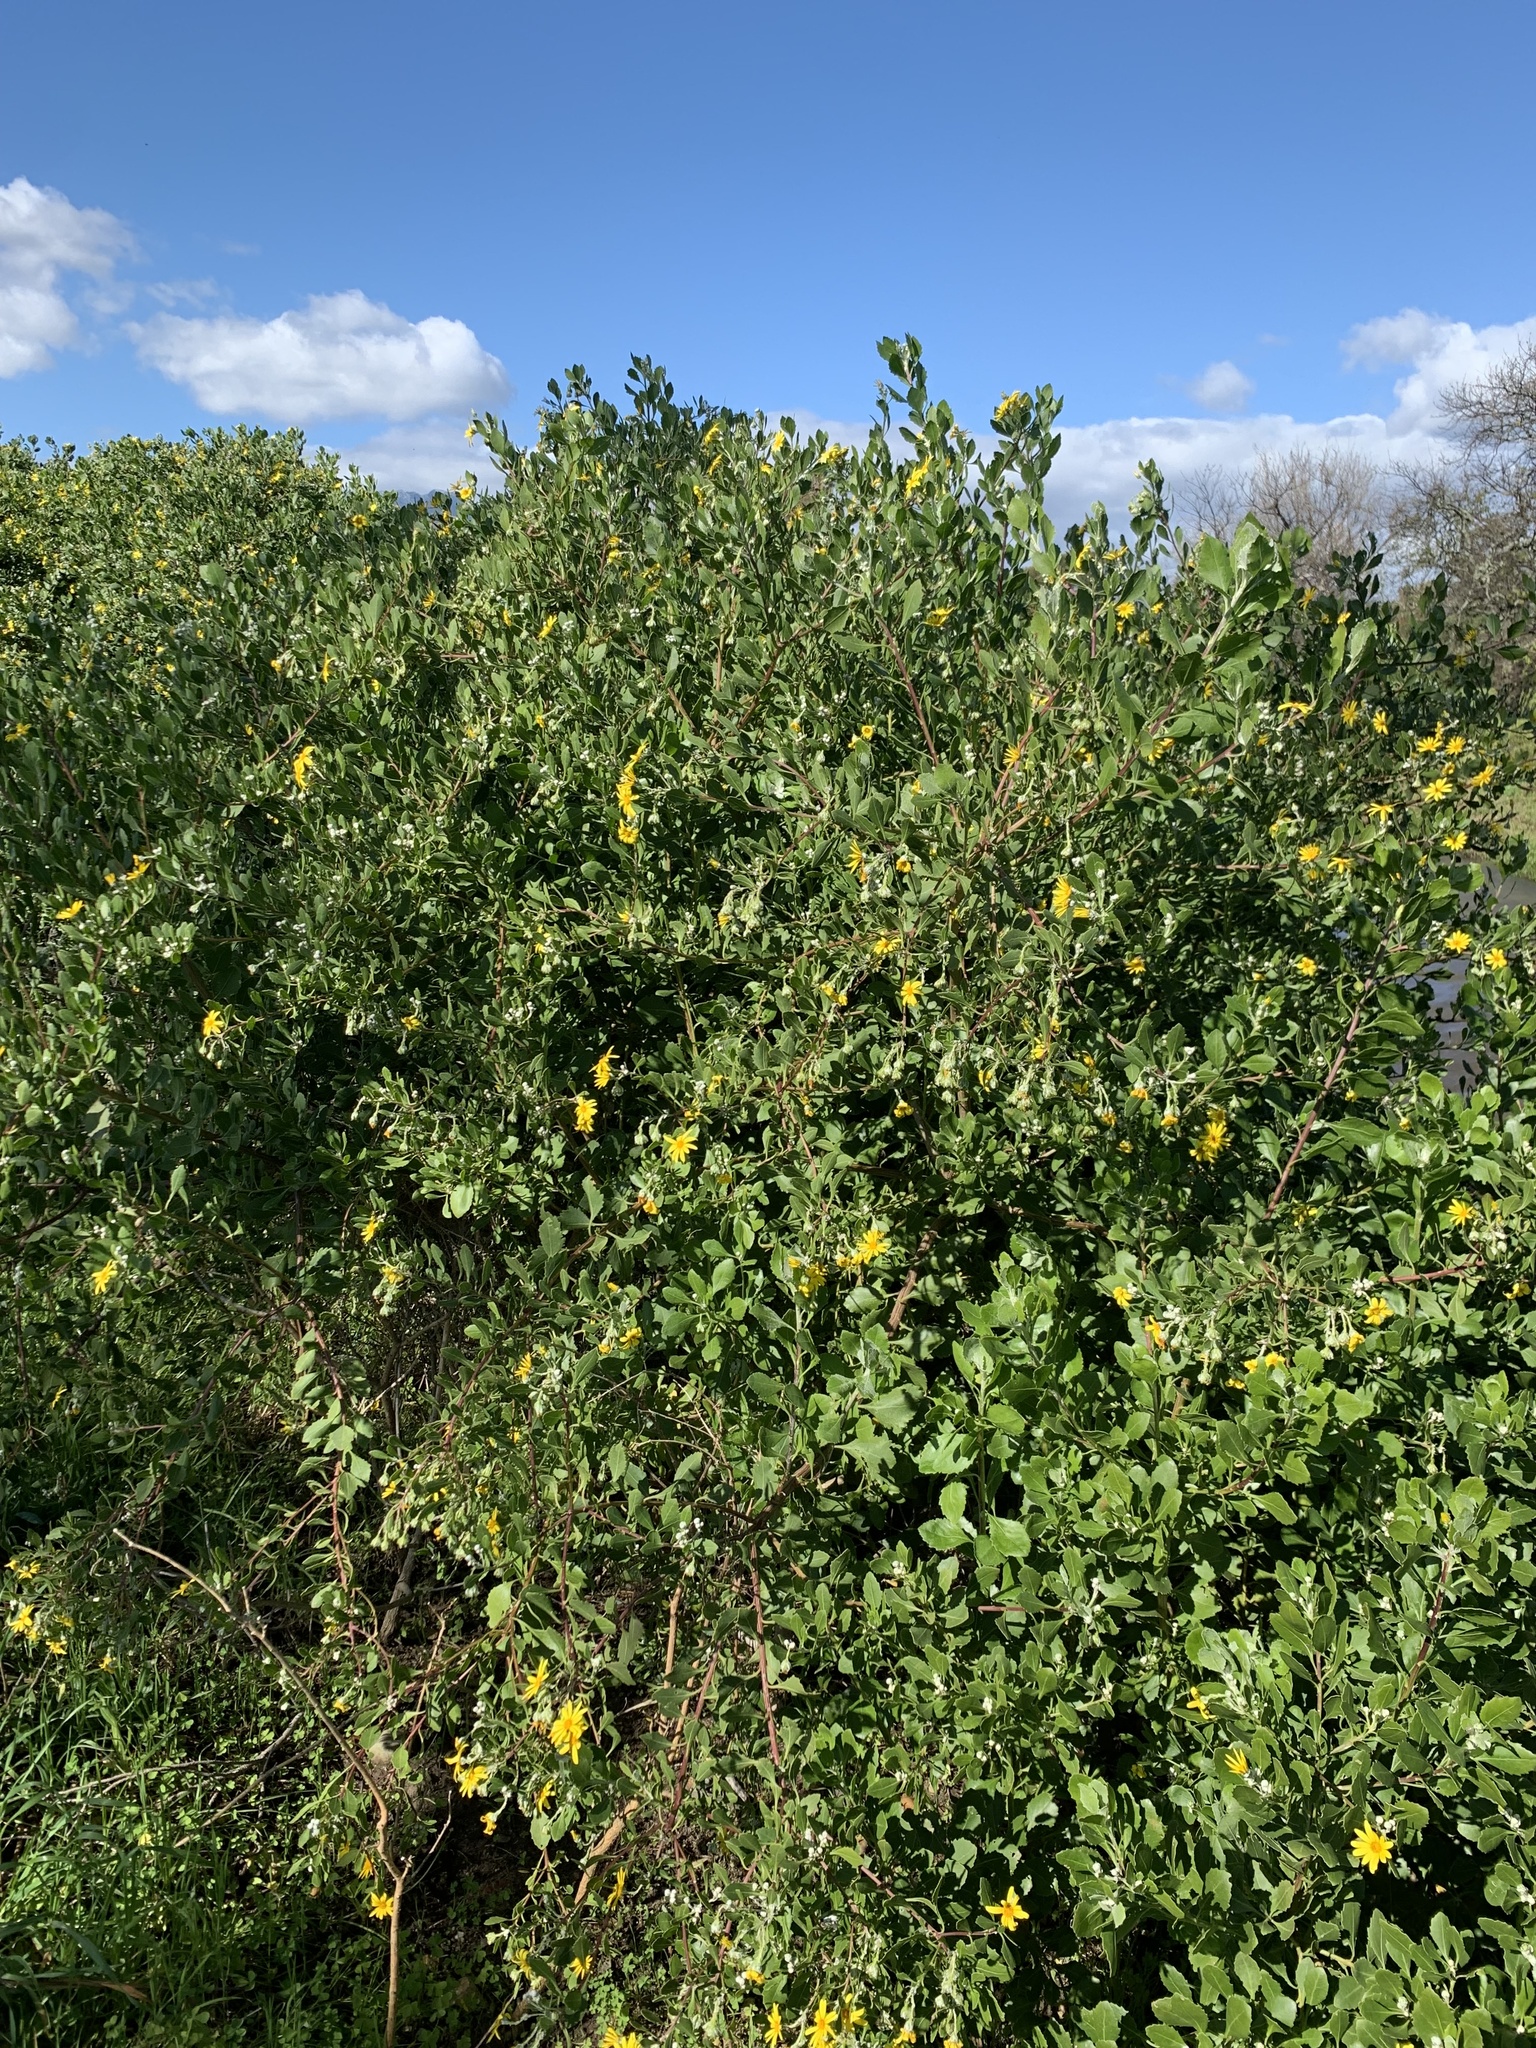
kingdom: Plantae
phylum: Tracheophyta
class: Magnoliopsida
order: Asterales
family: Asteraceae
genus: Osteospermum
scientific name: Osteospermum moniliferum
